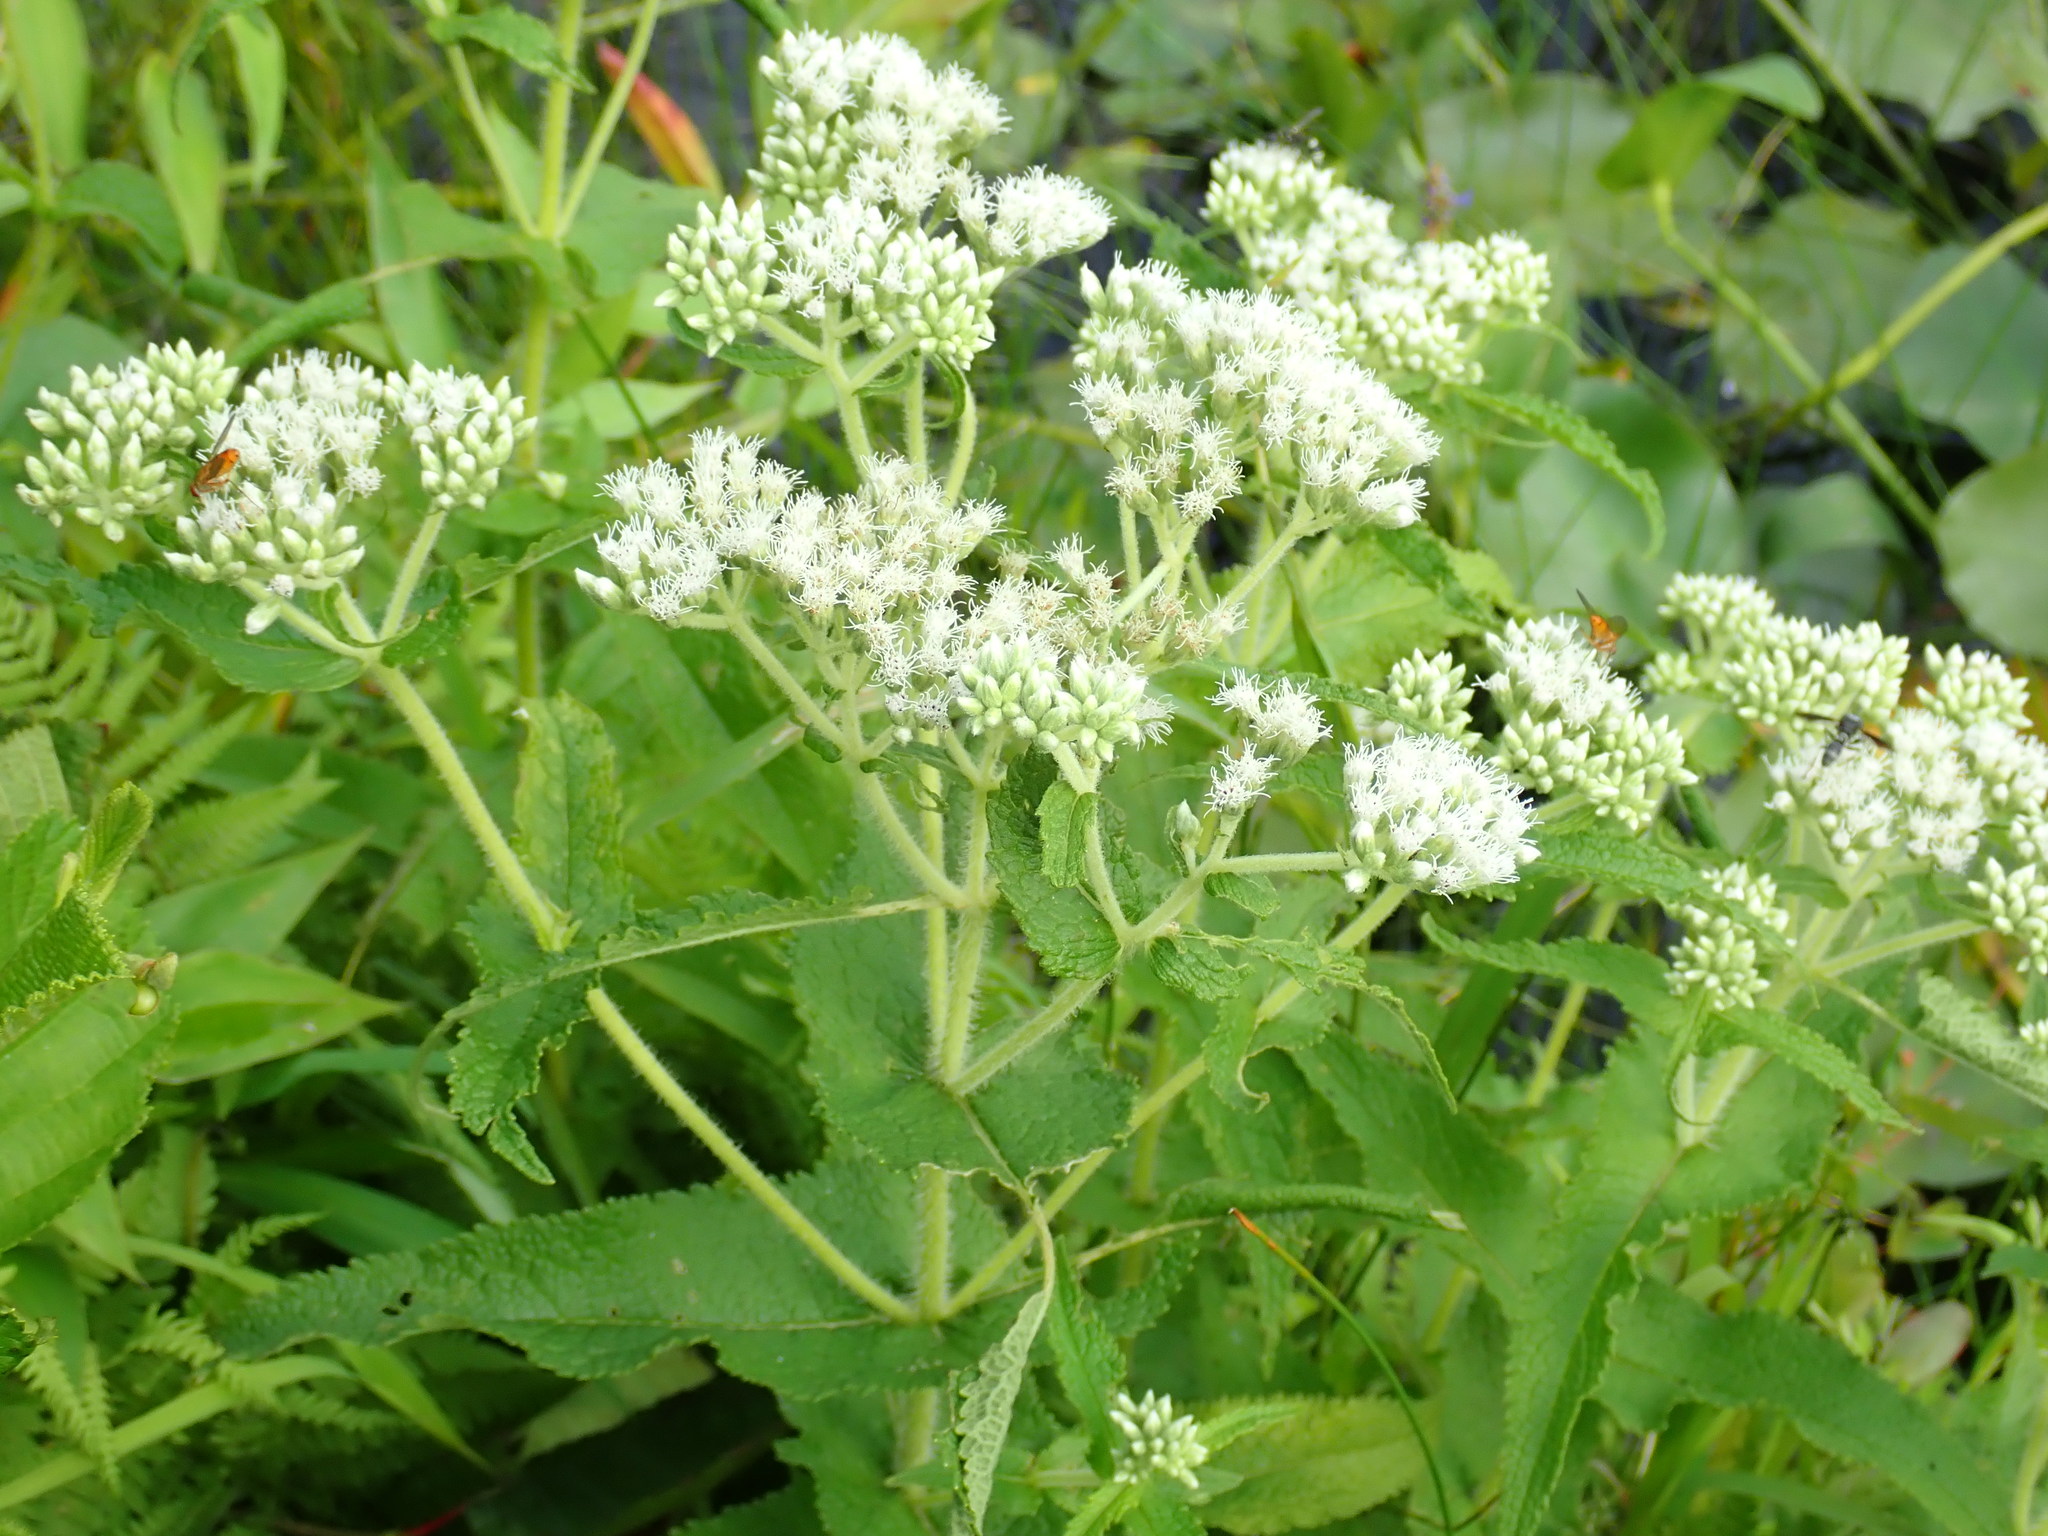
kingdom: Plantae
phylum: Tracheophyta
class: Magnoliopsida
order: Asterales
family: Asteraceae
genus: Eupatorium
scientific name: Eupatorium perfoliatum
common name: Boneset
